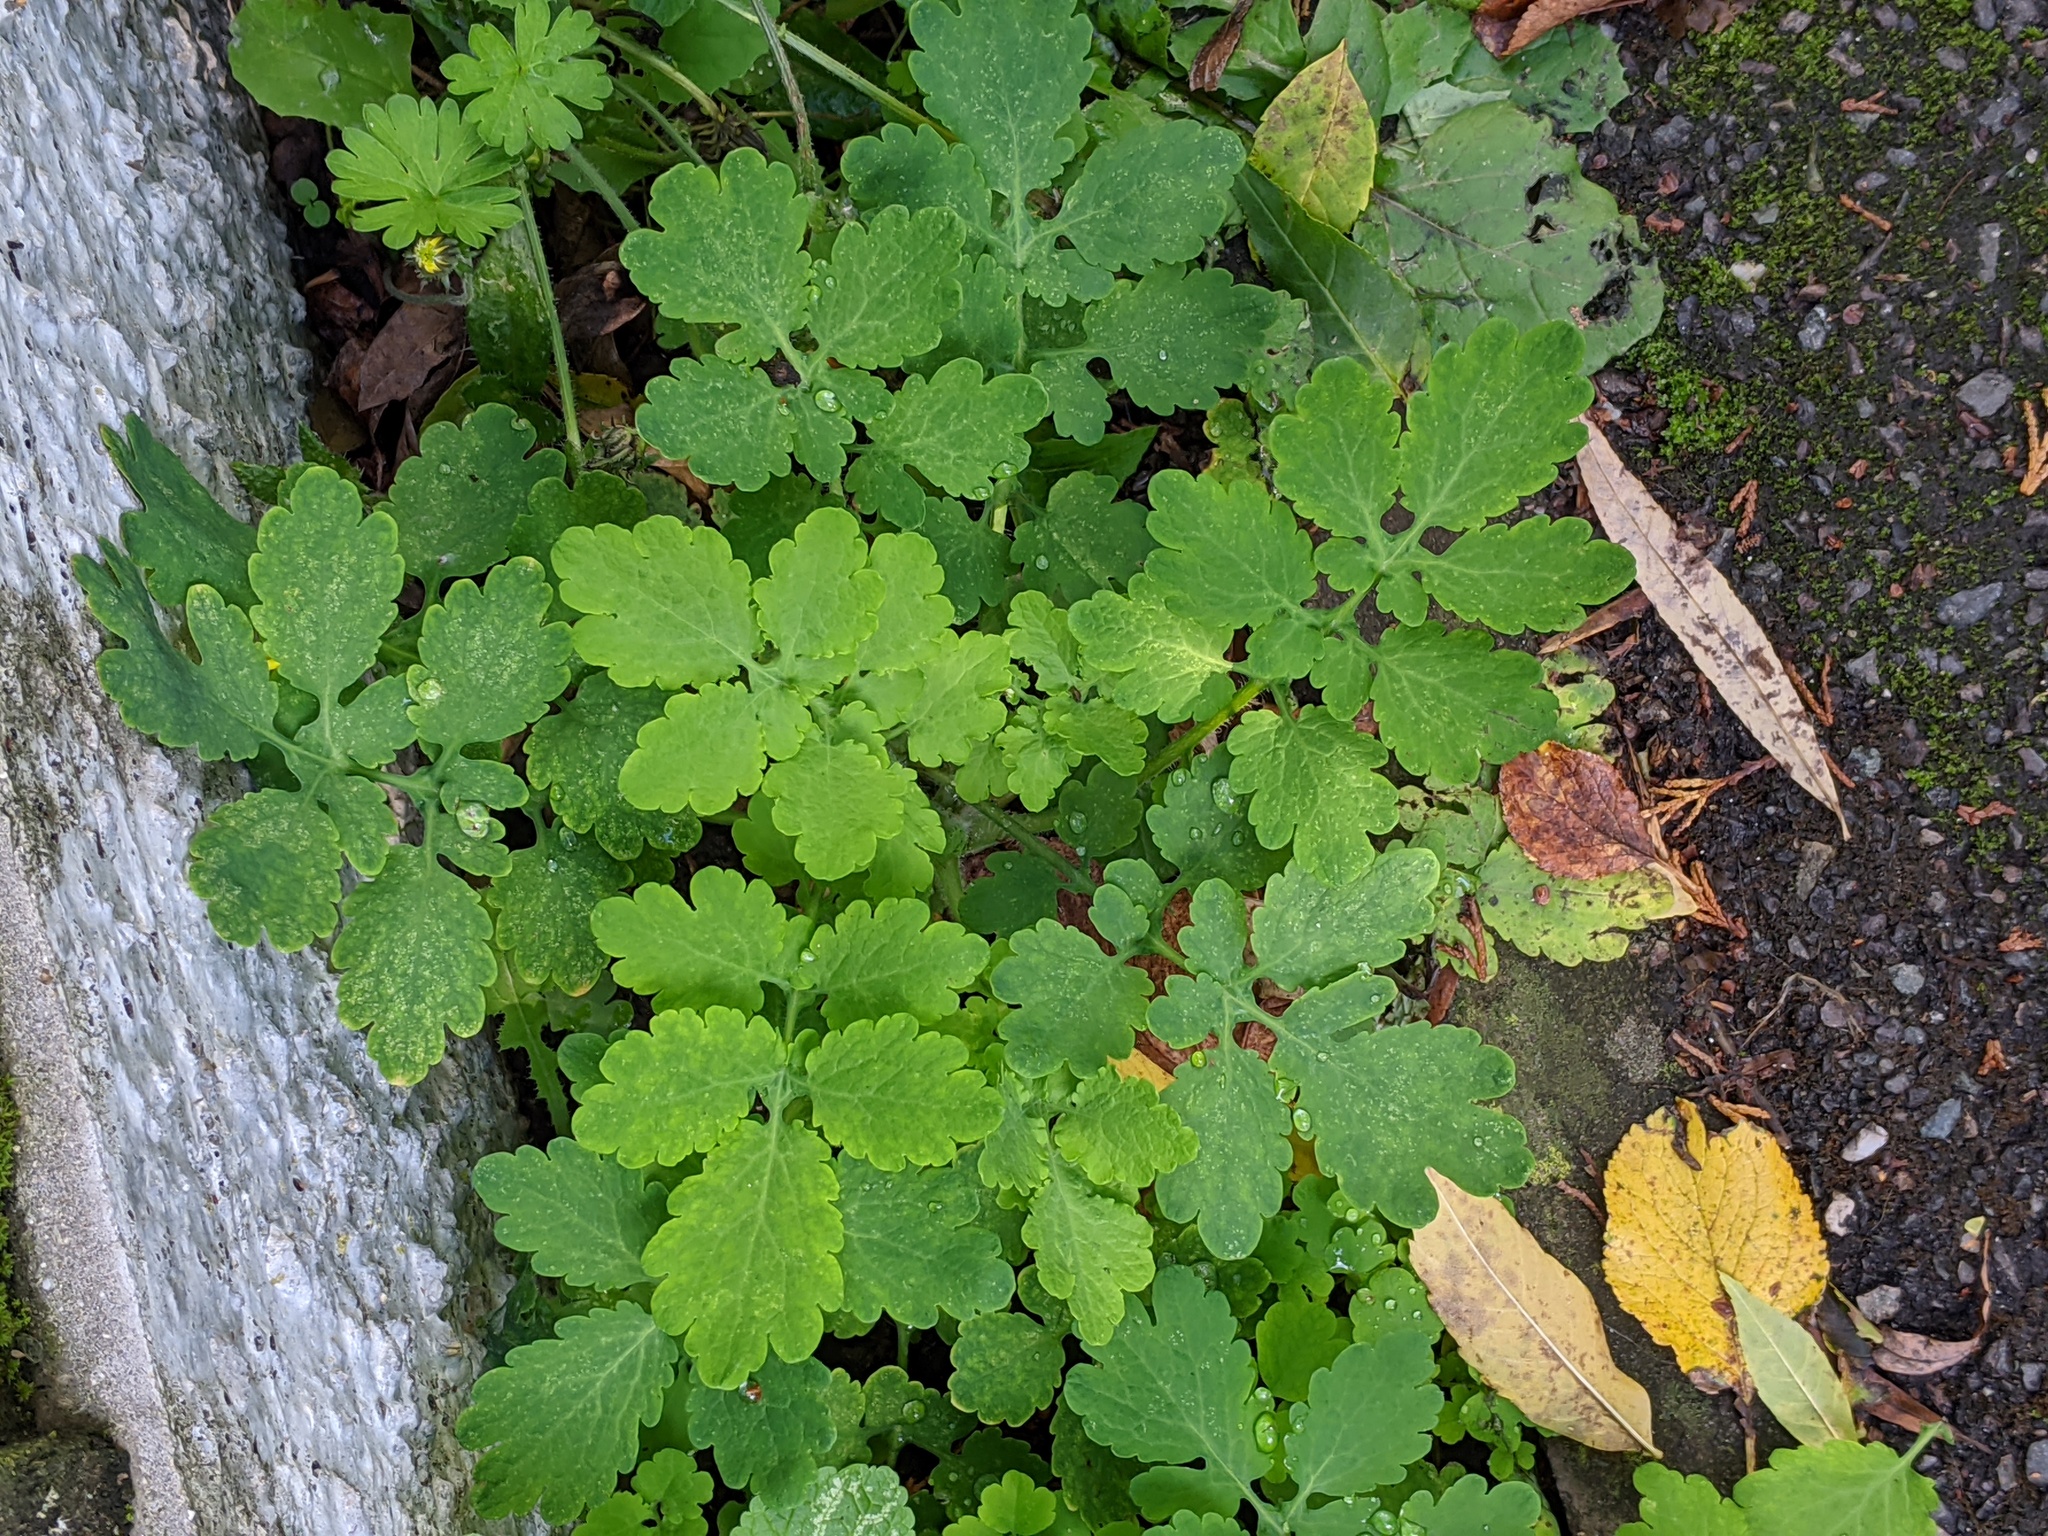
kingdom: Plantae
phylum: Tracheophyta
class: Magnoliopsida
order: Ranunculales
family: Papaveraceae
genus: Chelidonium
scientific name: Chelidonium majus
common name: Greater celandine
